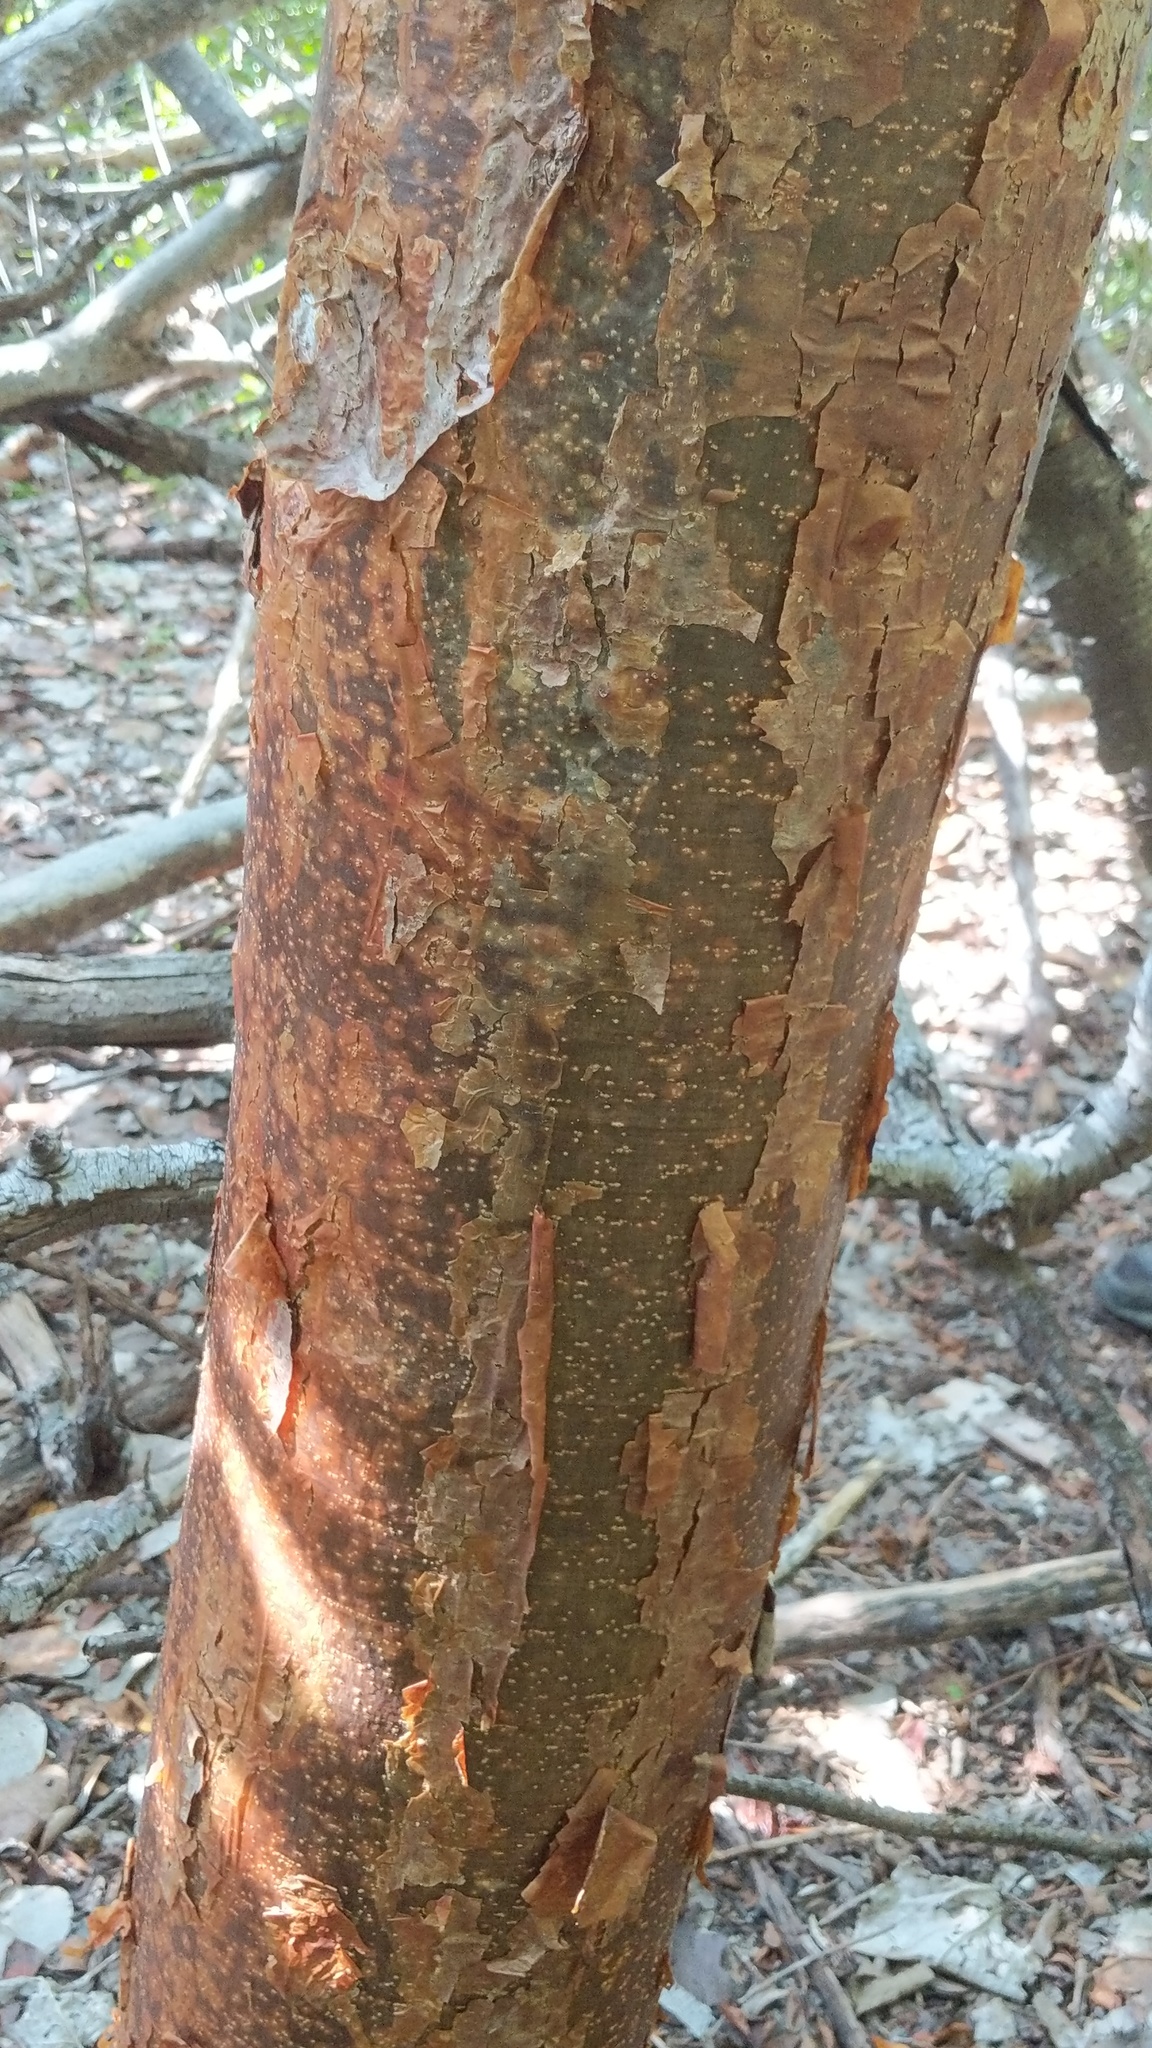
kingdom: Plantae
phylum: Tracheophyta
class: Magnoliopsida
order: Sapindales
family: Burseraceae
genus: Bursera
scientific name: Bursera simaruba
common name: Turpentine tree
